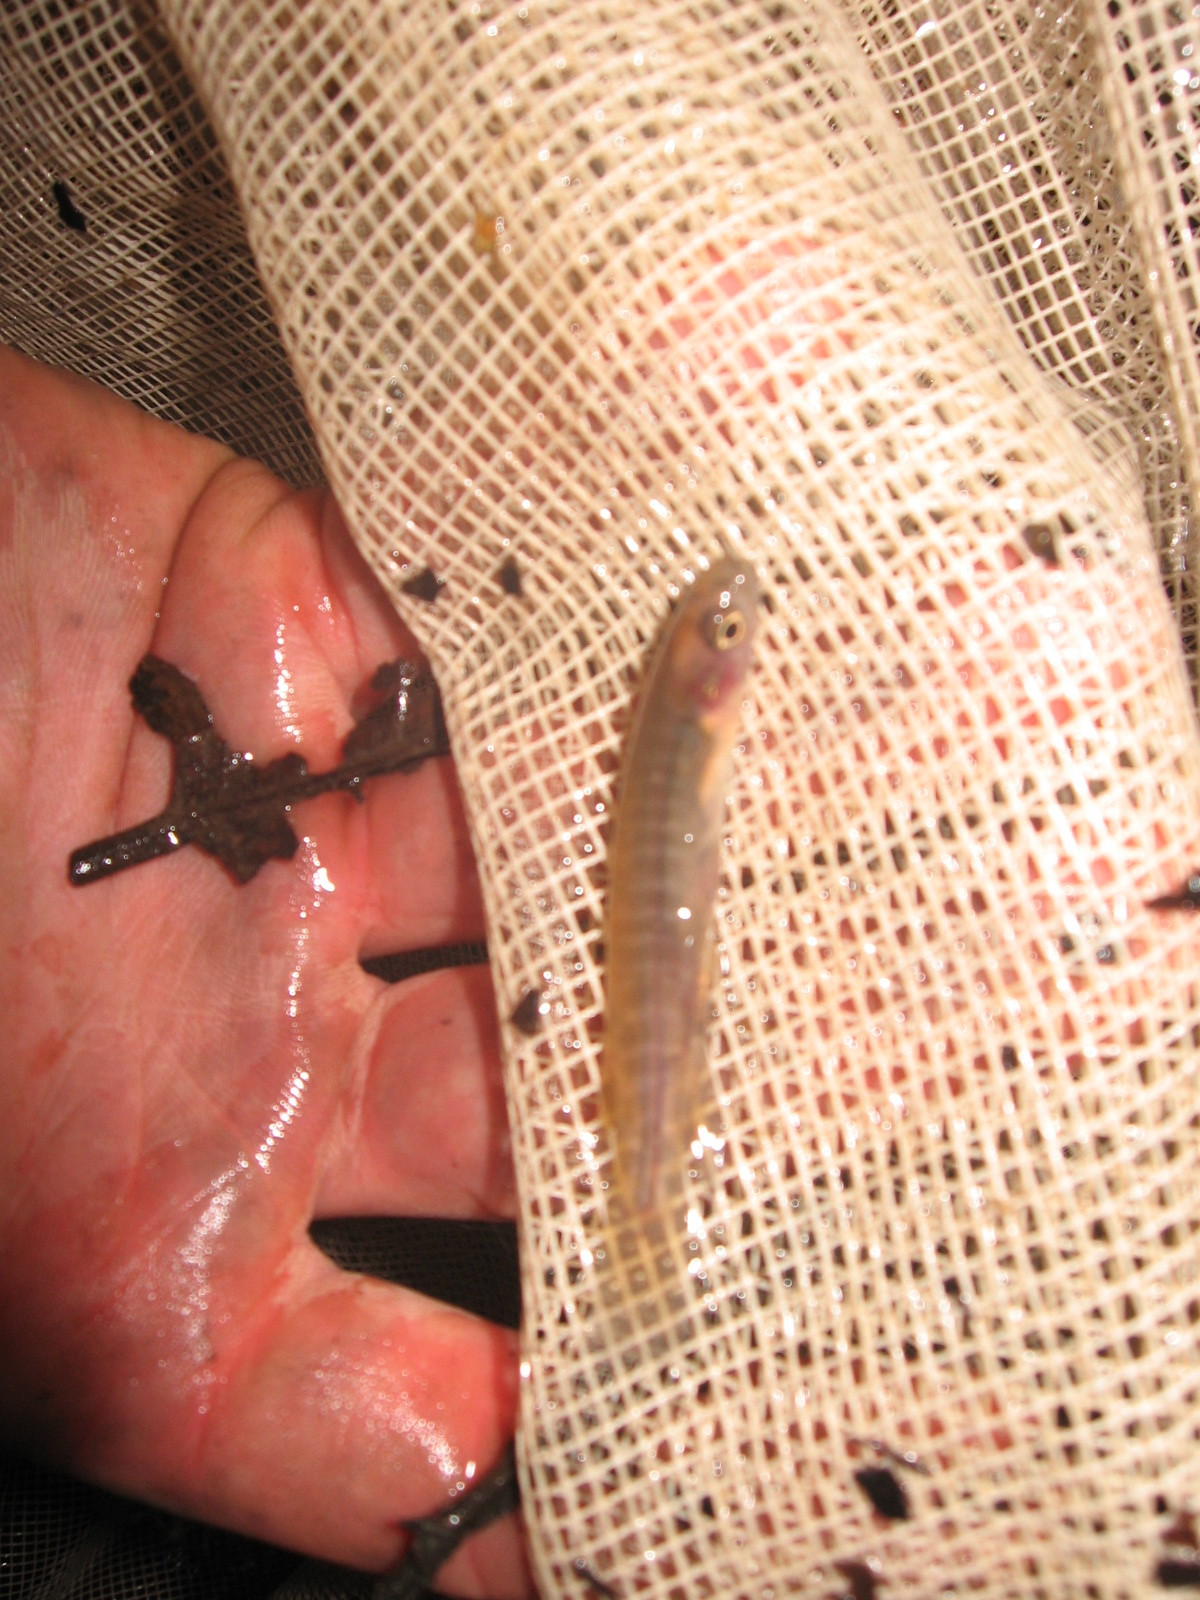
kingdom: Animalia
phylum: Chordata
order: Osmeriformes
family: Galaxiidae
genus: Galaxias
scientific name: Galaxias fasciatus
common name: Banded kokopu
